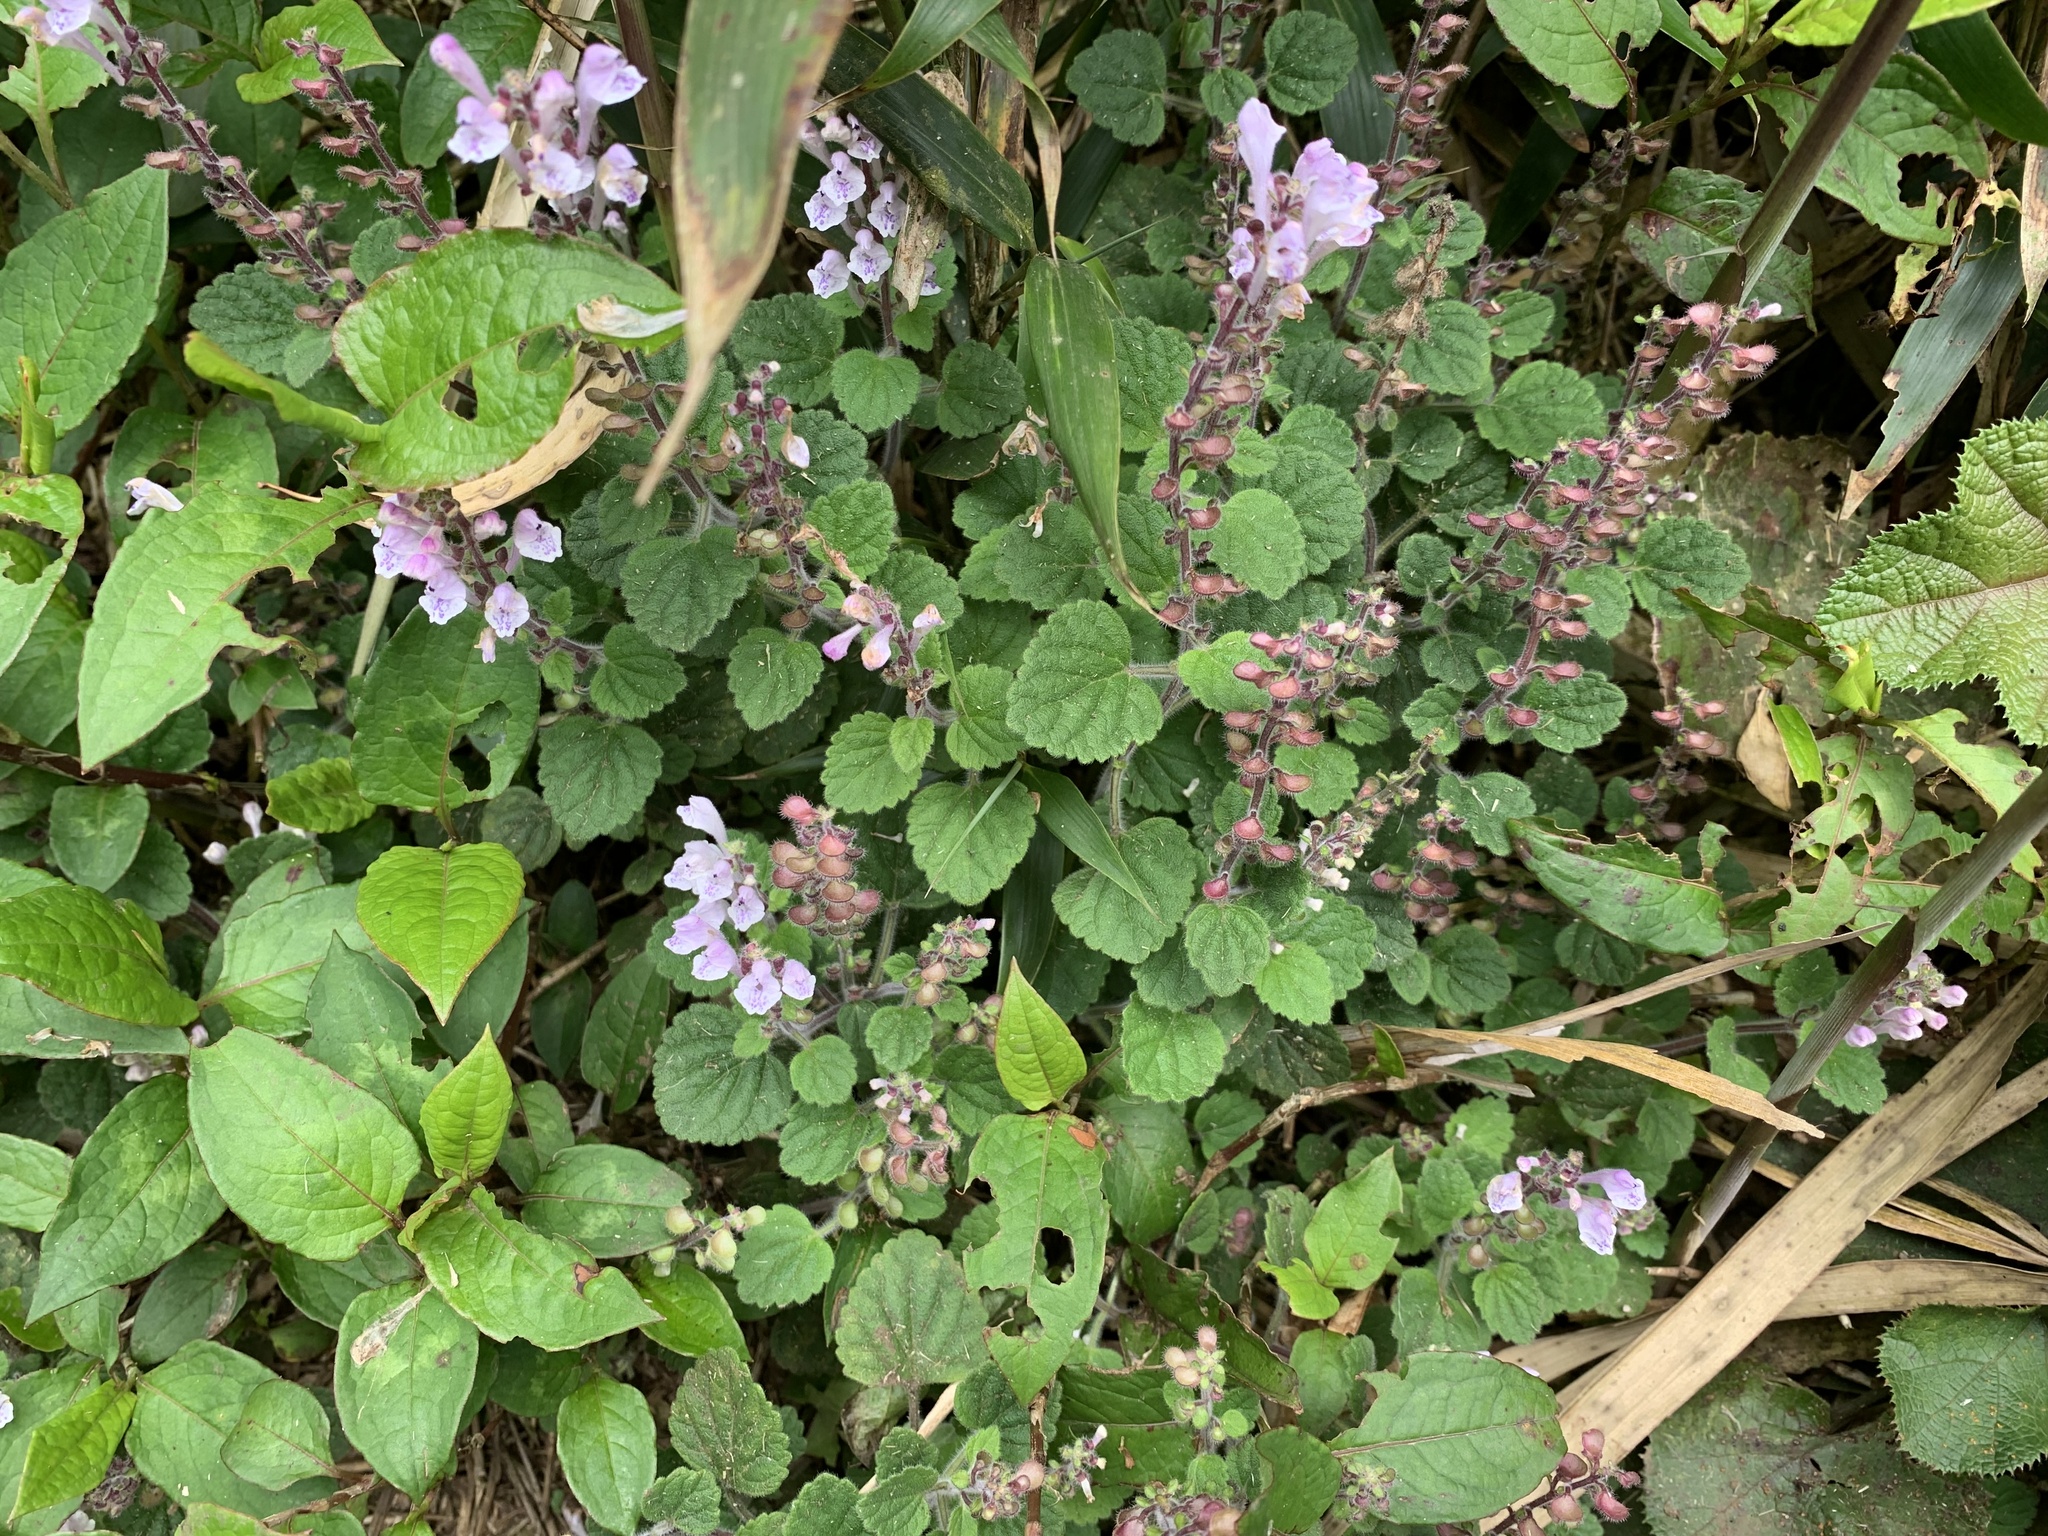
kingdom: Plantae
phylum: Tracheophyta
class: Magnoliopsida
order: Lamiales
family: Lamiaceae
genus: Scutellaria
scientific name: Scutellaria indica
